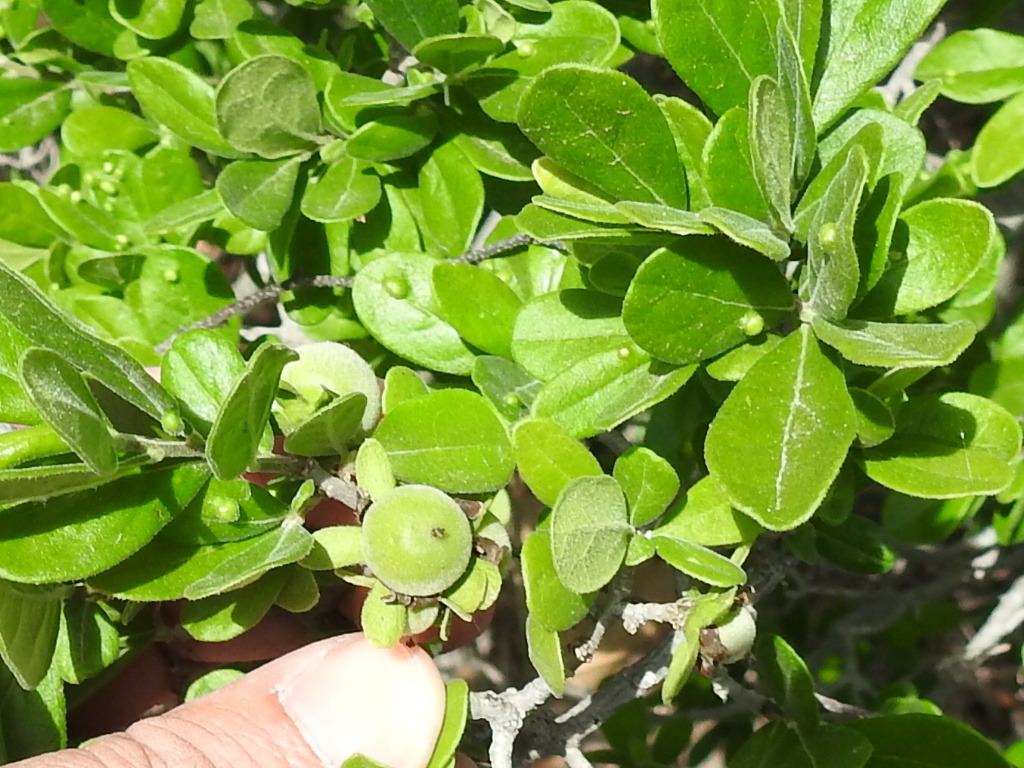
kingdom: Plantae
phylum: Tracheophyta
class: Magnoliopsida
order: Ericales
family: Ebenaceae
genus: Diospyros
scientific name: Diospyros texana
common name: Texas persimmon
